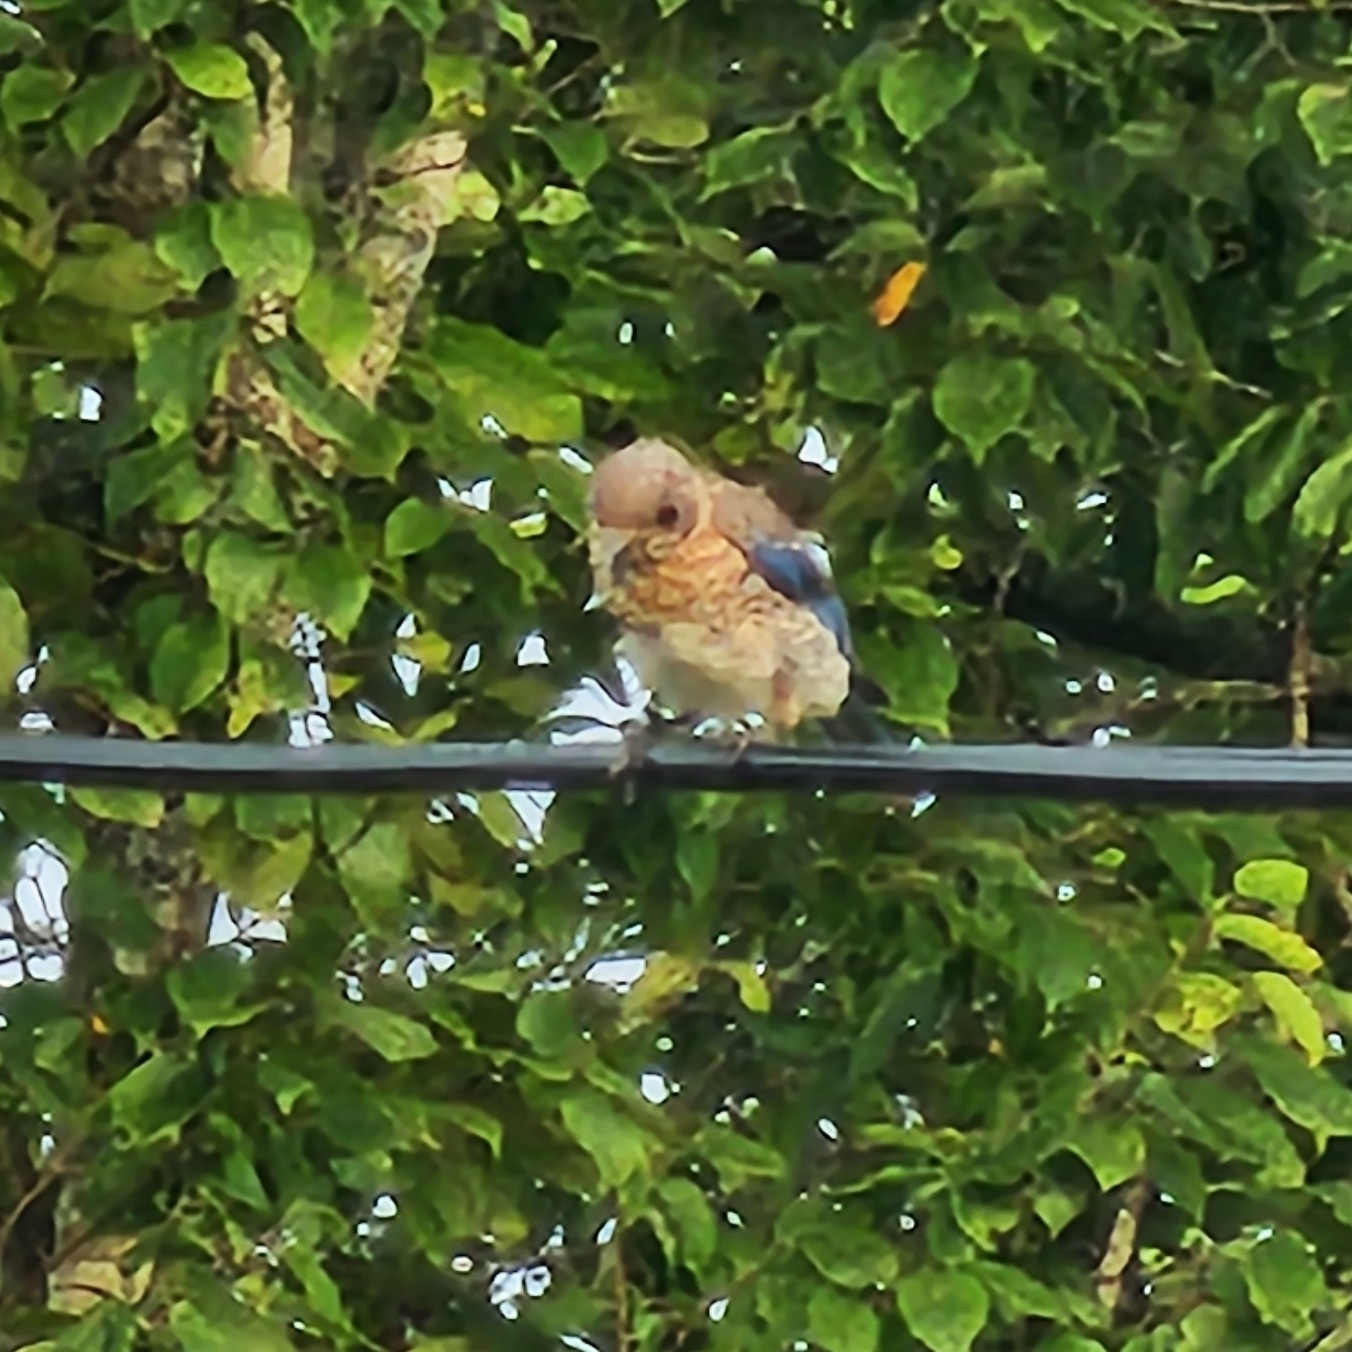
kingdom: Animalia
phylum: Chordata
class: Aves
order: Passeriformes
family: Turdidae
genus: Sialia
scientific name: Sialia sialis
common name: Eastern bluebird
